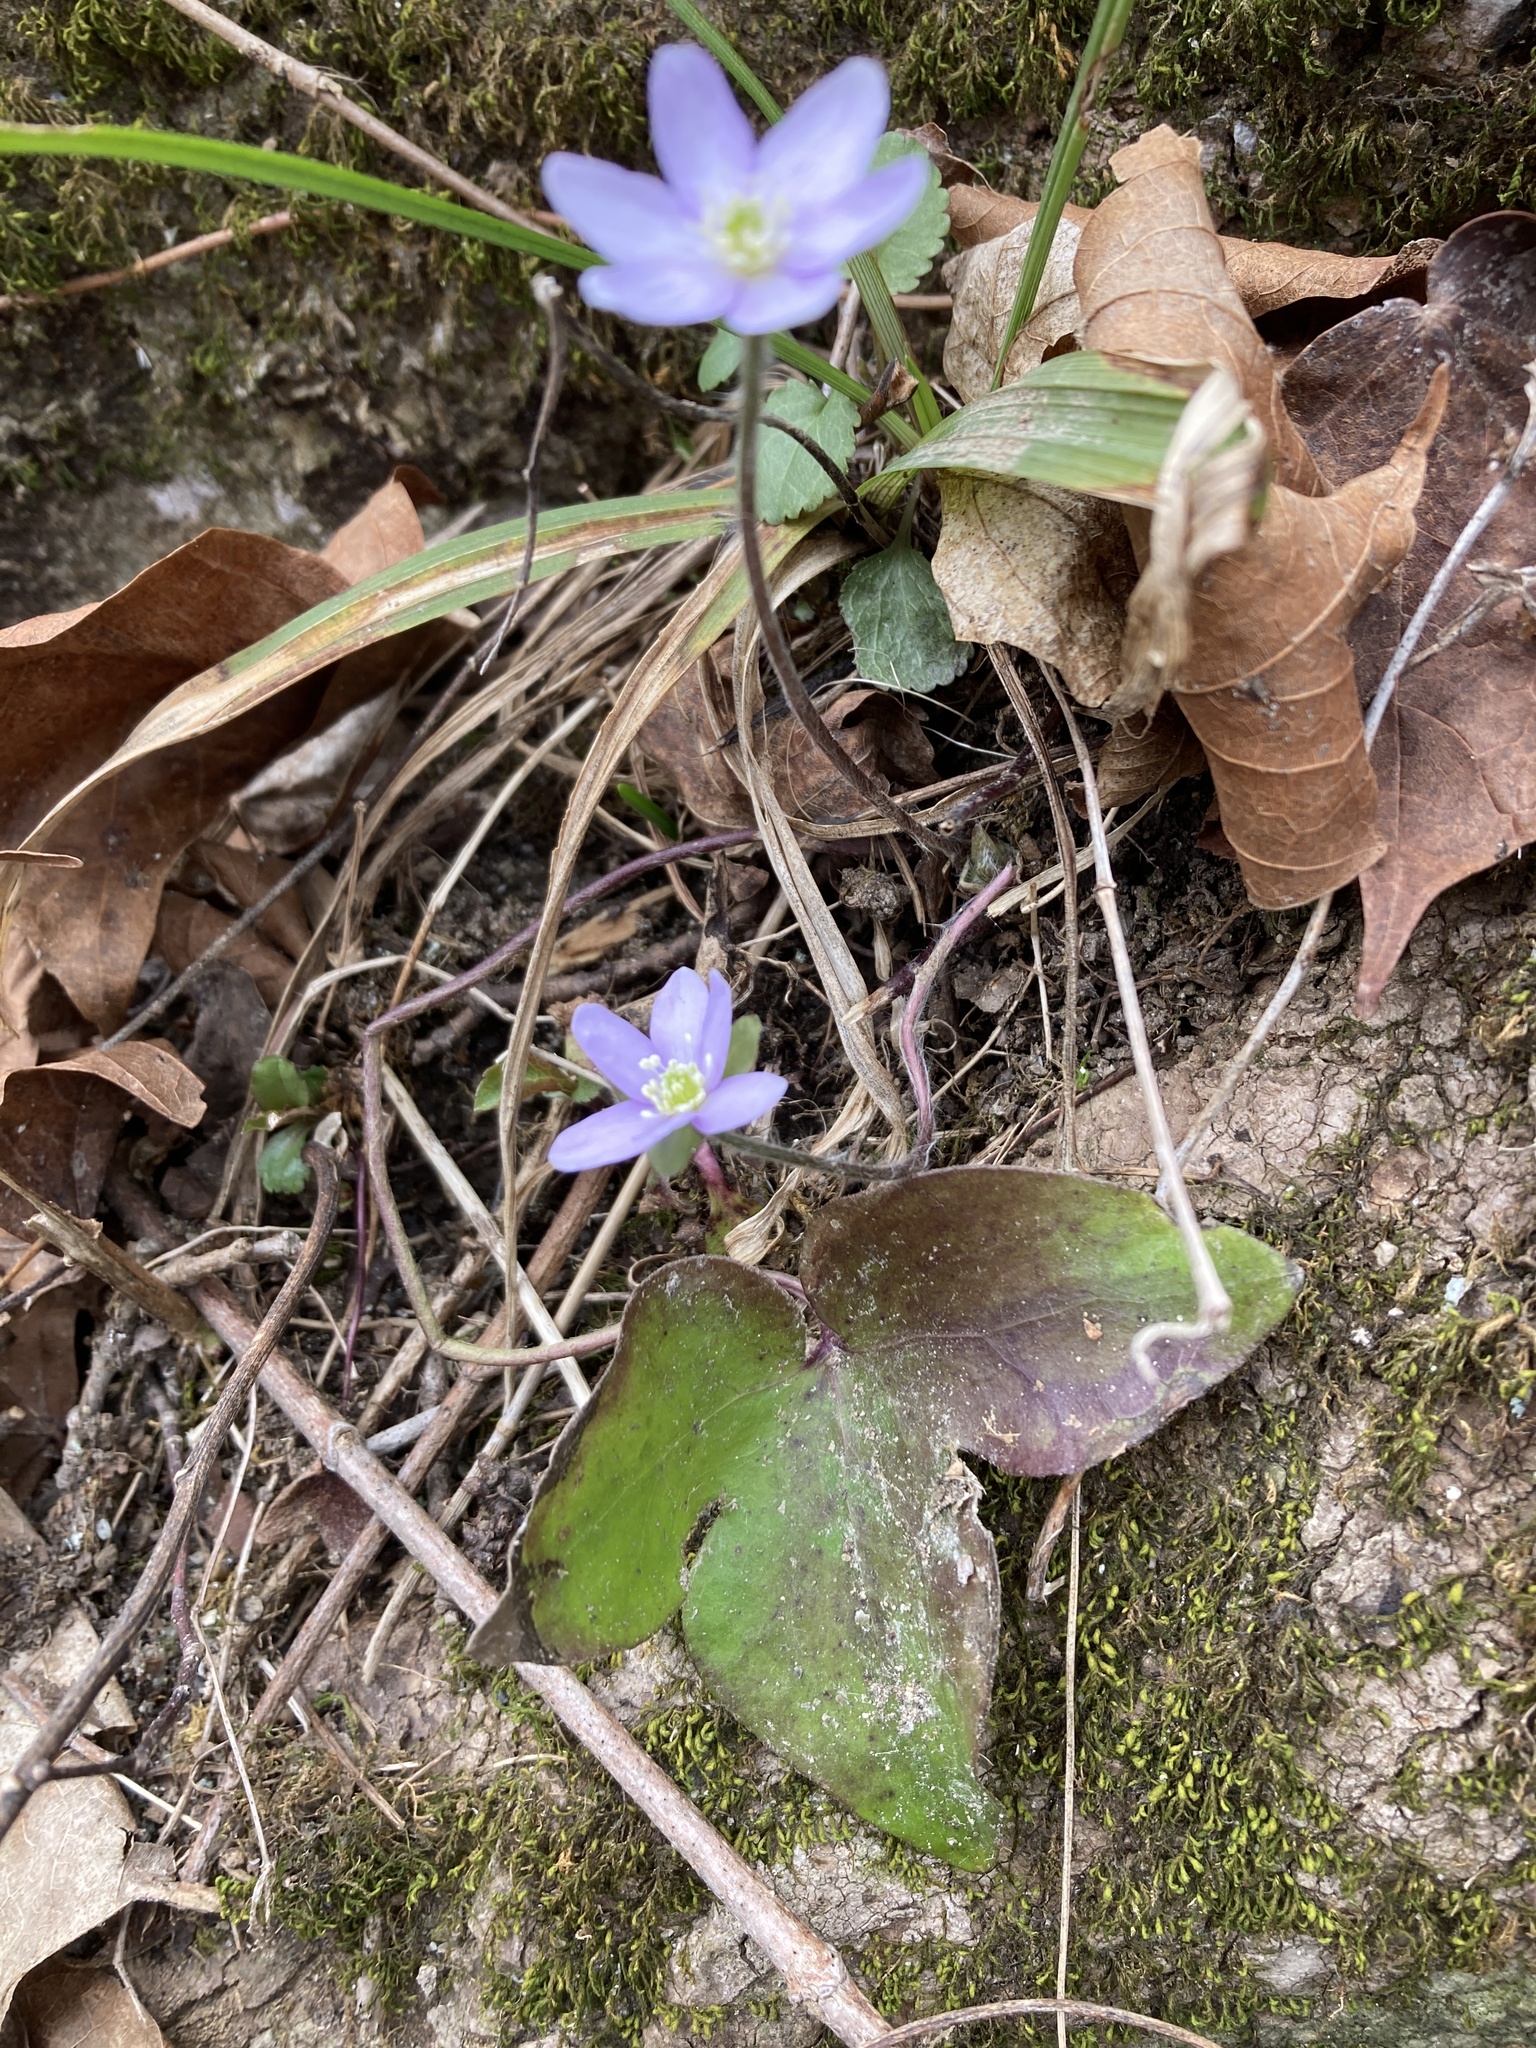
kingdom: Plantae
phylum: Tracheophyta
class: Magnoliopsida
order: Ranunculales
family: Ranunculaceae
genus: Hepatica
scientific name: Hepatica acutiloba
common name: Sharp-lobed hepatica
